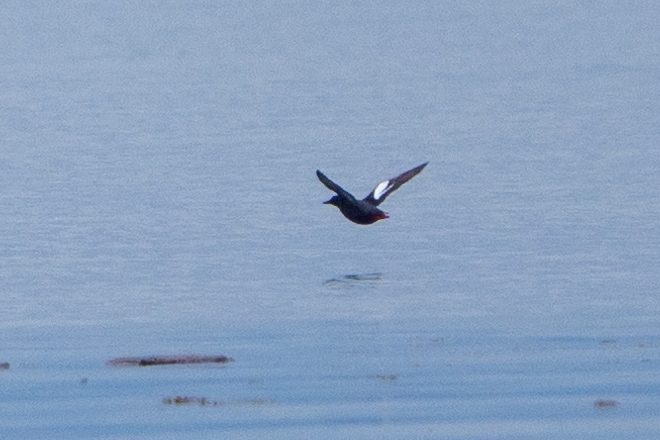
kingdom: Animalia
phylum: Chordata
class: Aves
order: Charadriiformes
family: Alcidae
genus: Cepphus
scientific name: Cepphus columba
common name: Pigeon guillemot
